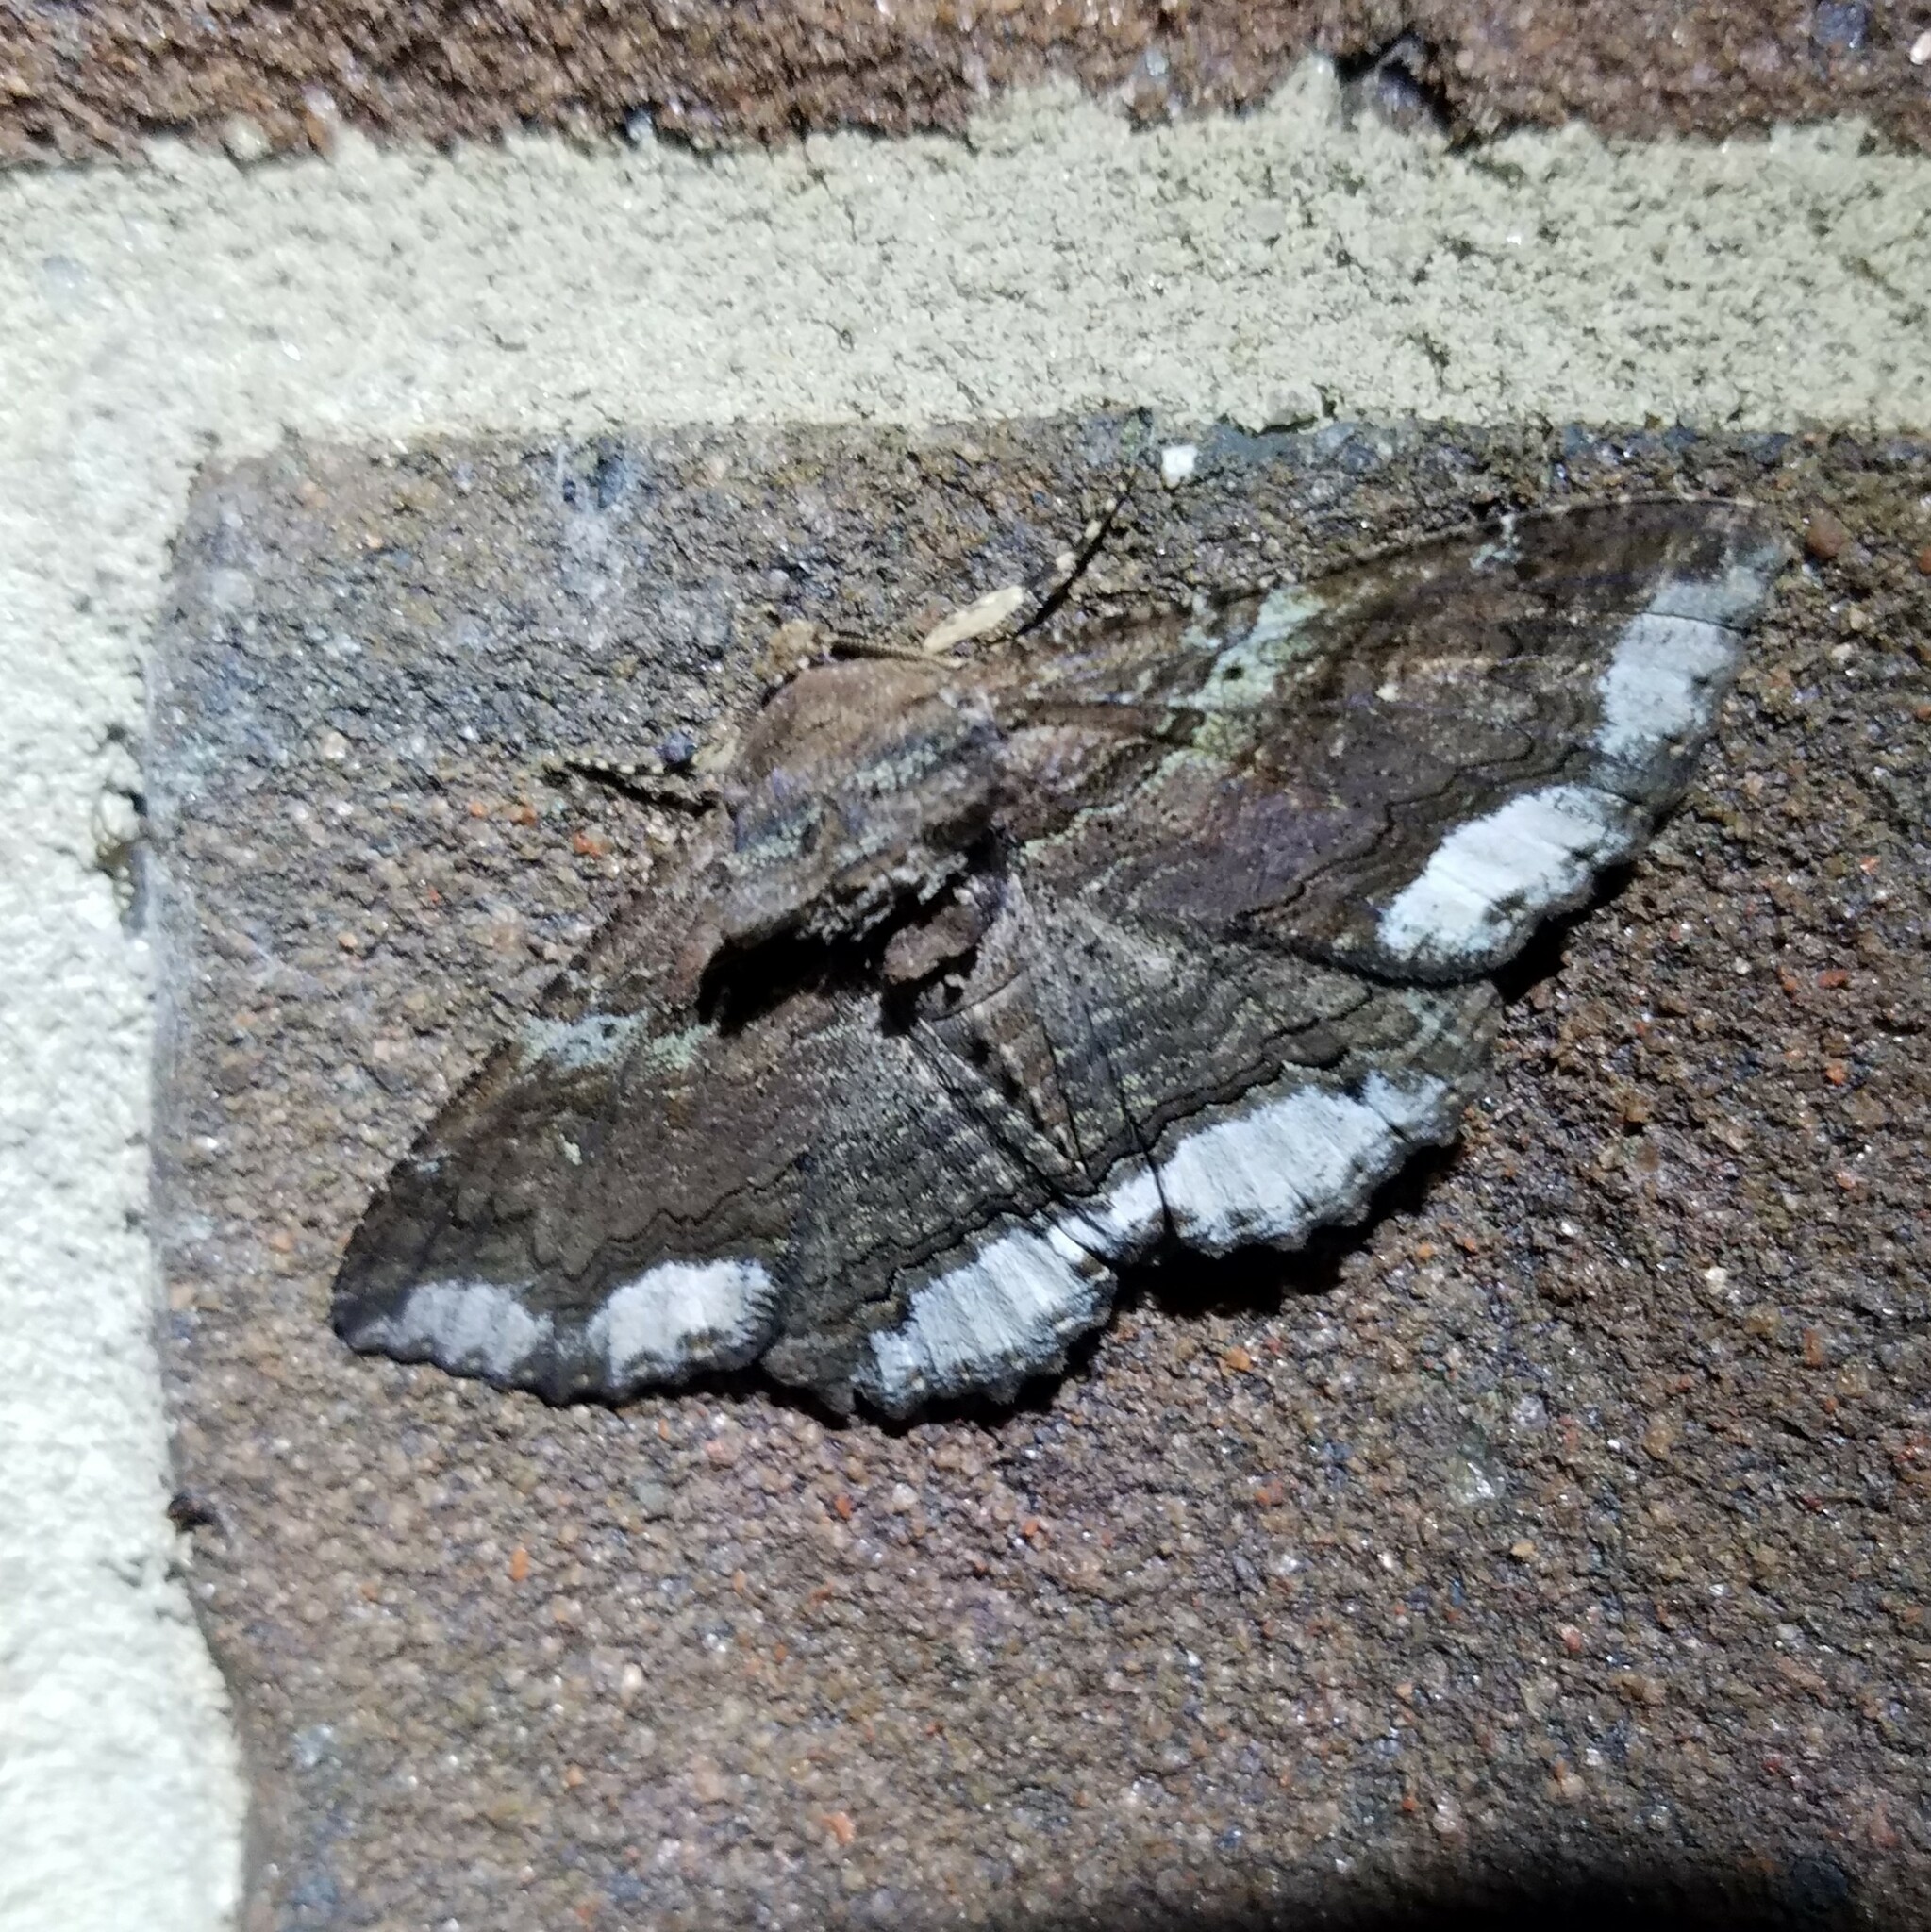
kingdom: Animalia
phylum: Arthropoda
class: Insecta
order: Lepidoptera
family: Erebidae
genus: Zale
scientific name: Zale lunata
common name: Lunate zale moth
